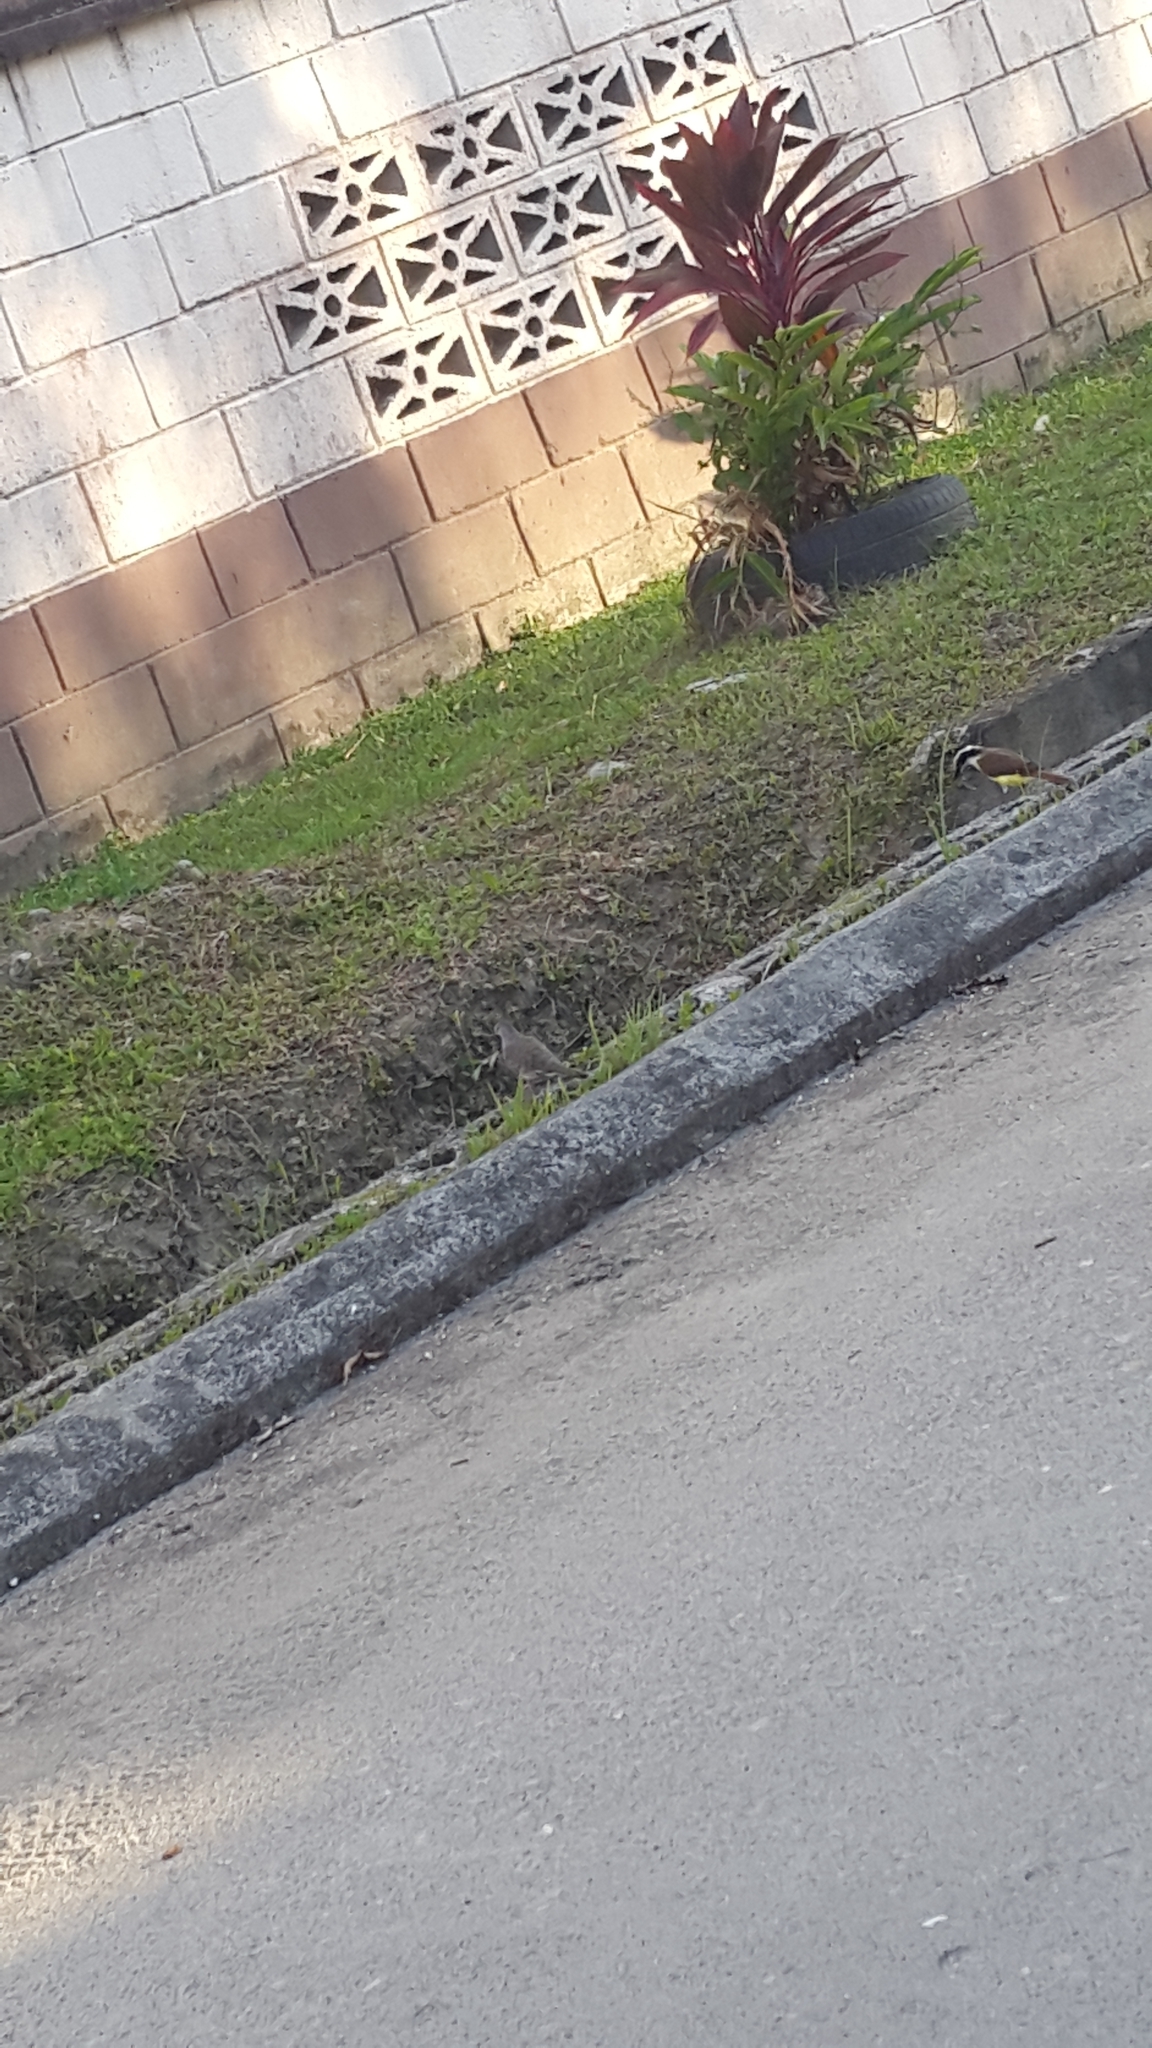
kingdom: Animalia
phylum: Chordata
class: Aves
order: Columbiformes
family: Columbidae
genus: Columbina
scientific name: Columbina inca
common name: Inca dove
